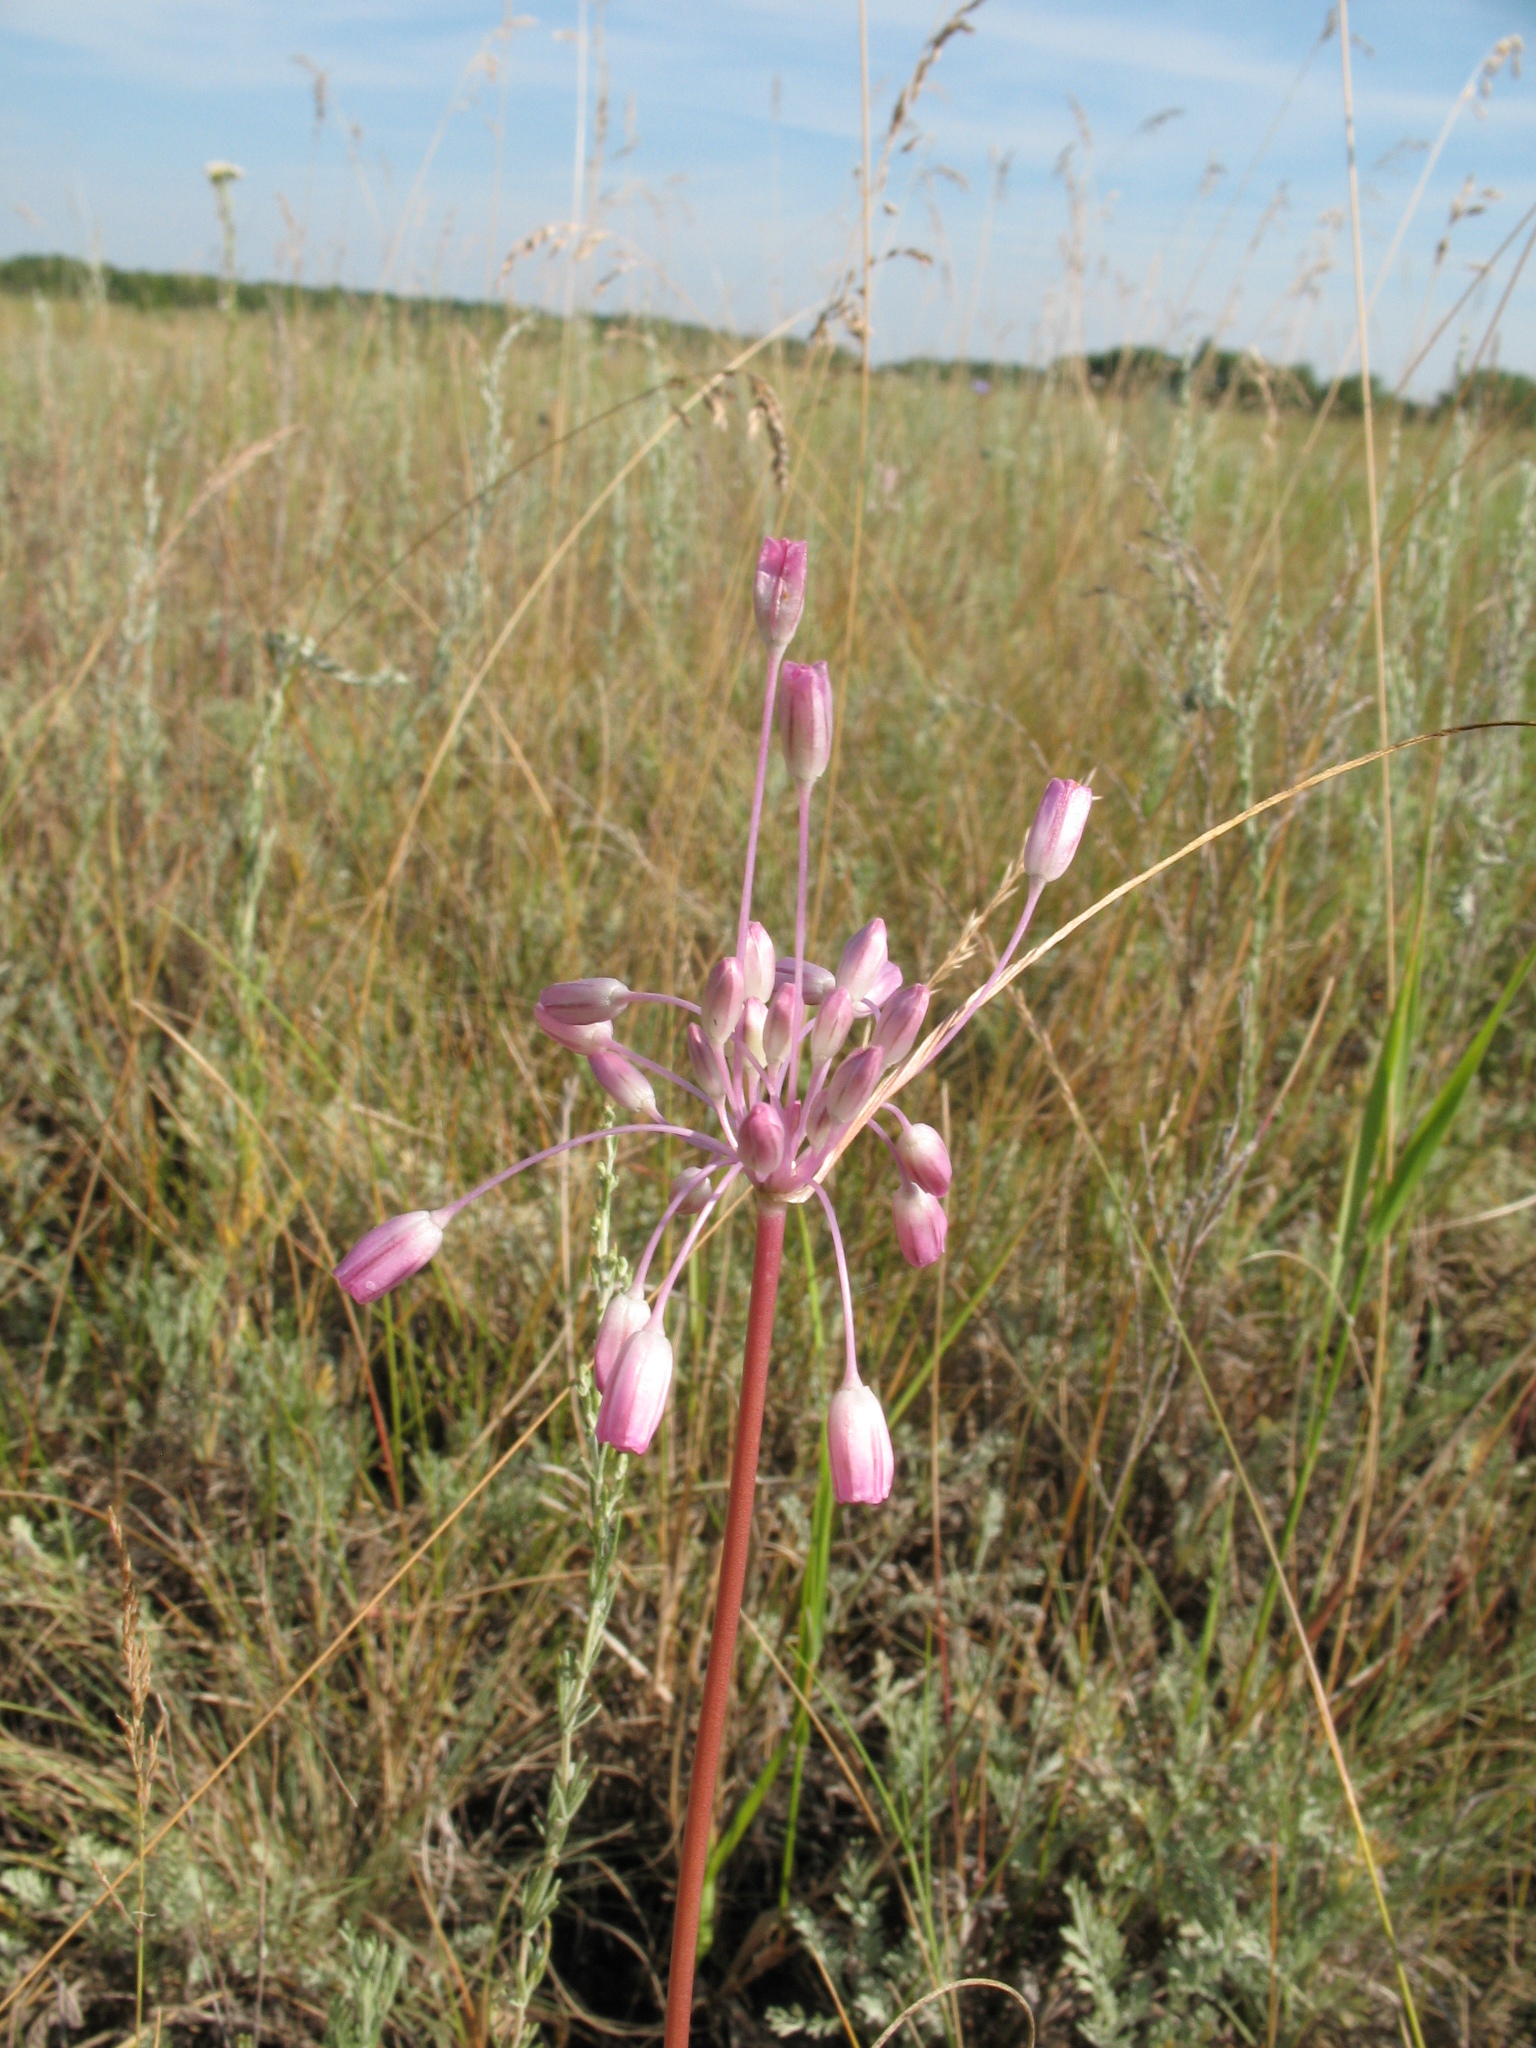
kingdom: Plantae
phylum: Tracheophyta
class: Liliopsida
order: Asparagales
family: Amaryllidaceae
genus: Allium
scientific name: Allium praescissum
